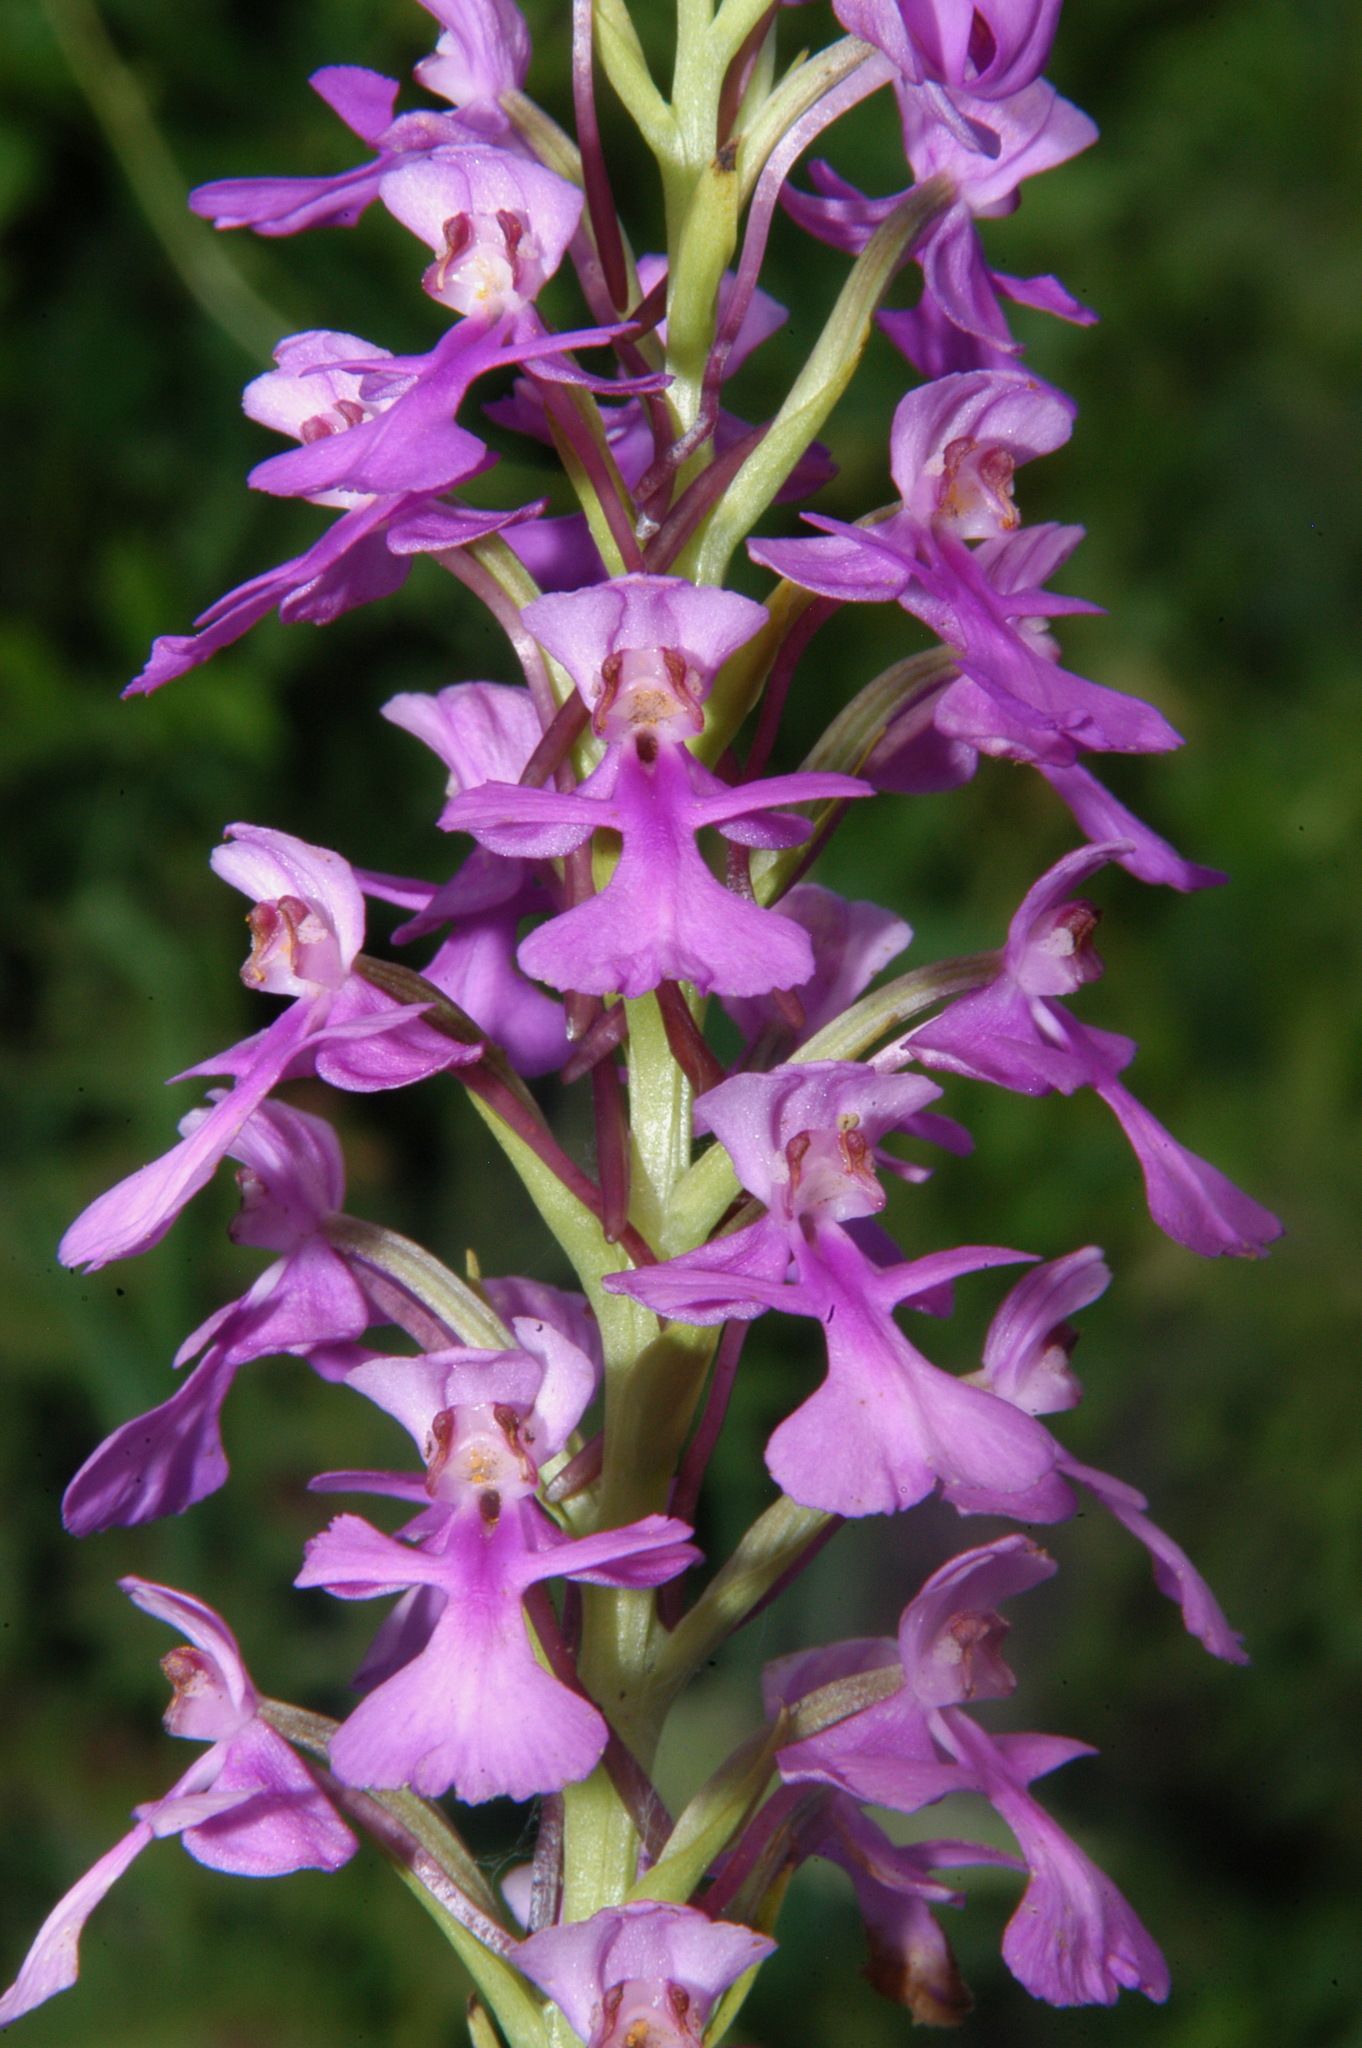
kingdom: Plantae
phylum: Tracheophyta
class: Liliopsida
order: Asparagales
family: Orchidaceae
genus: Platanthera
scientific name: Platanthera peramoena
